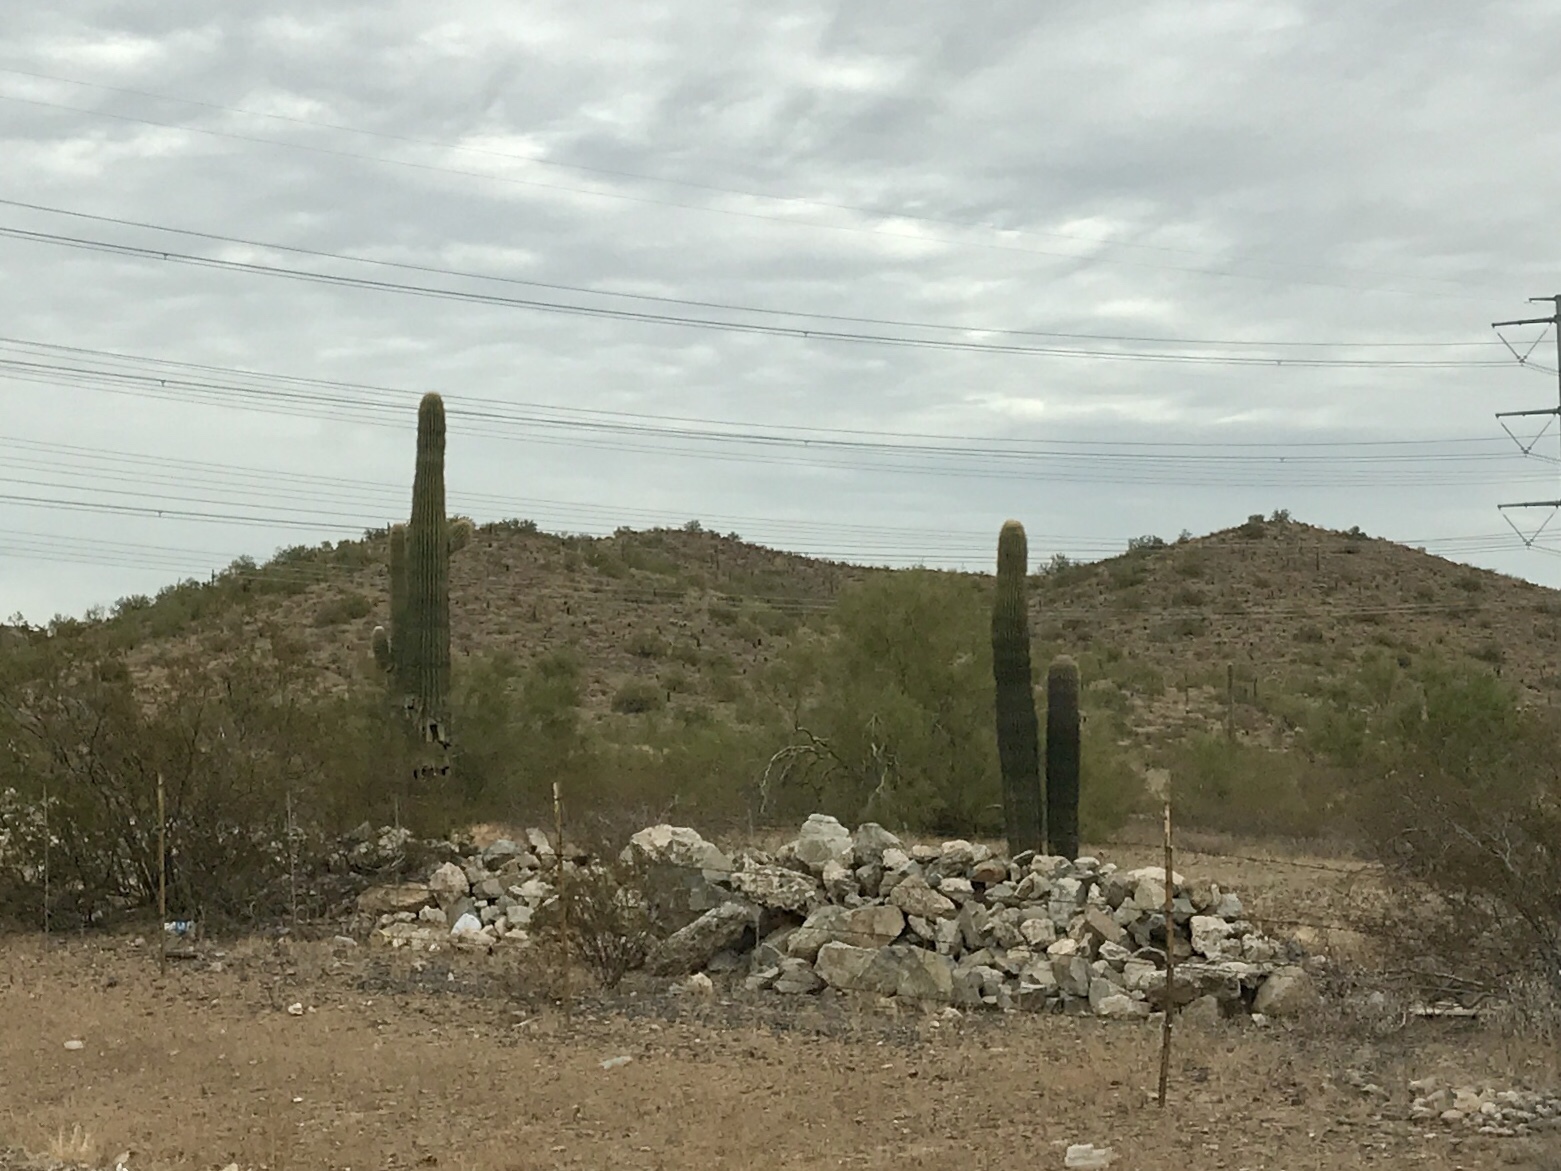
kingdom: Plantae
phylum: Tracheophyta
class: Magnoliopsida
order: Caryophyllales
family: Cactaceae
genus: Carnegiea
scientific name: Carnegiea gigantea
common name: Saguaro
